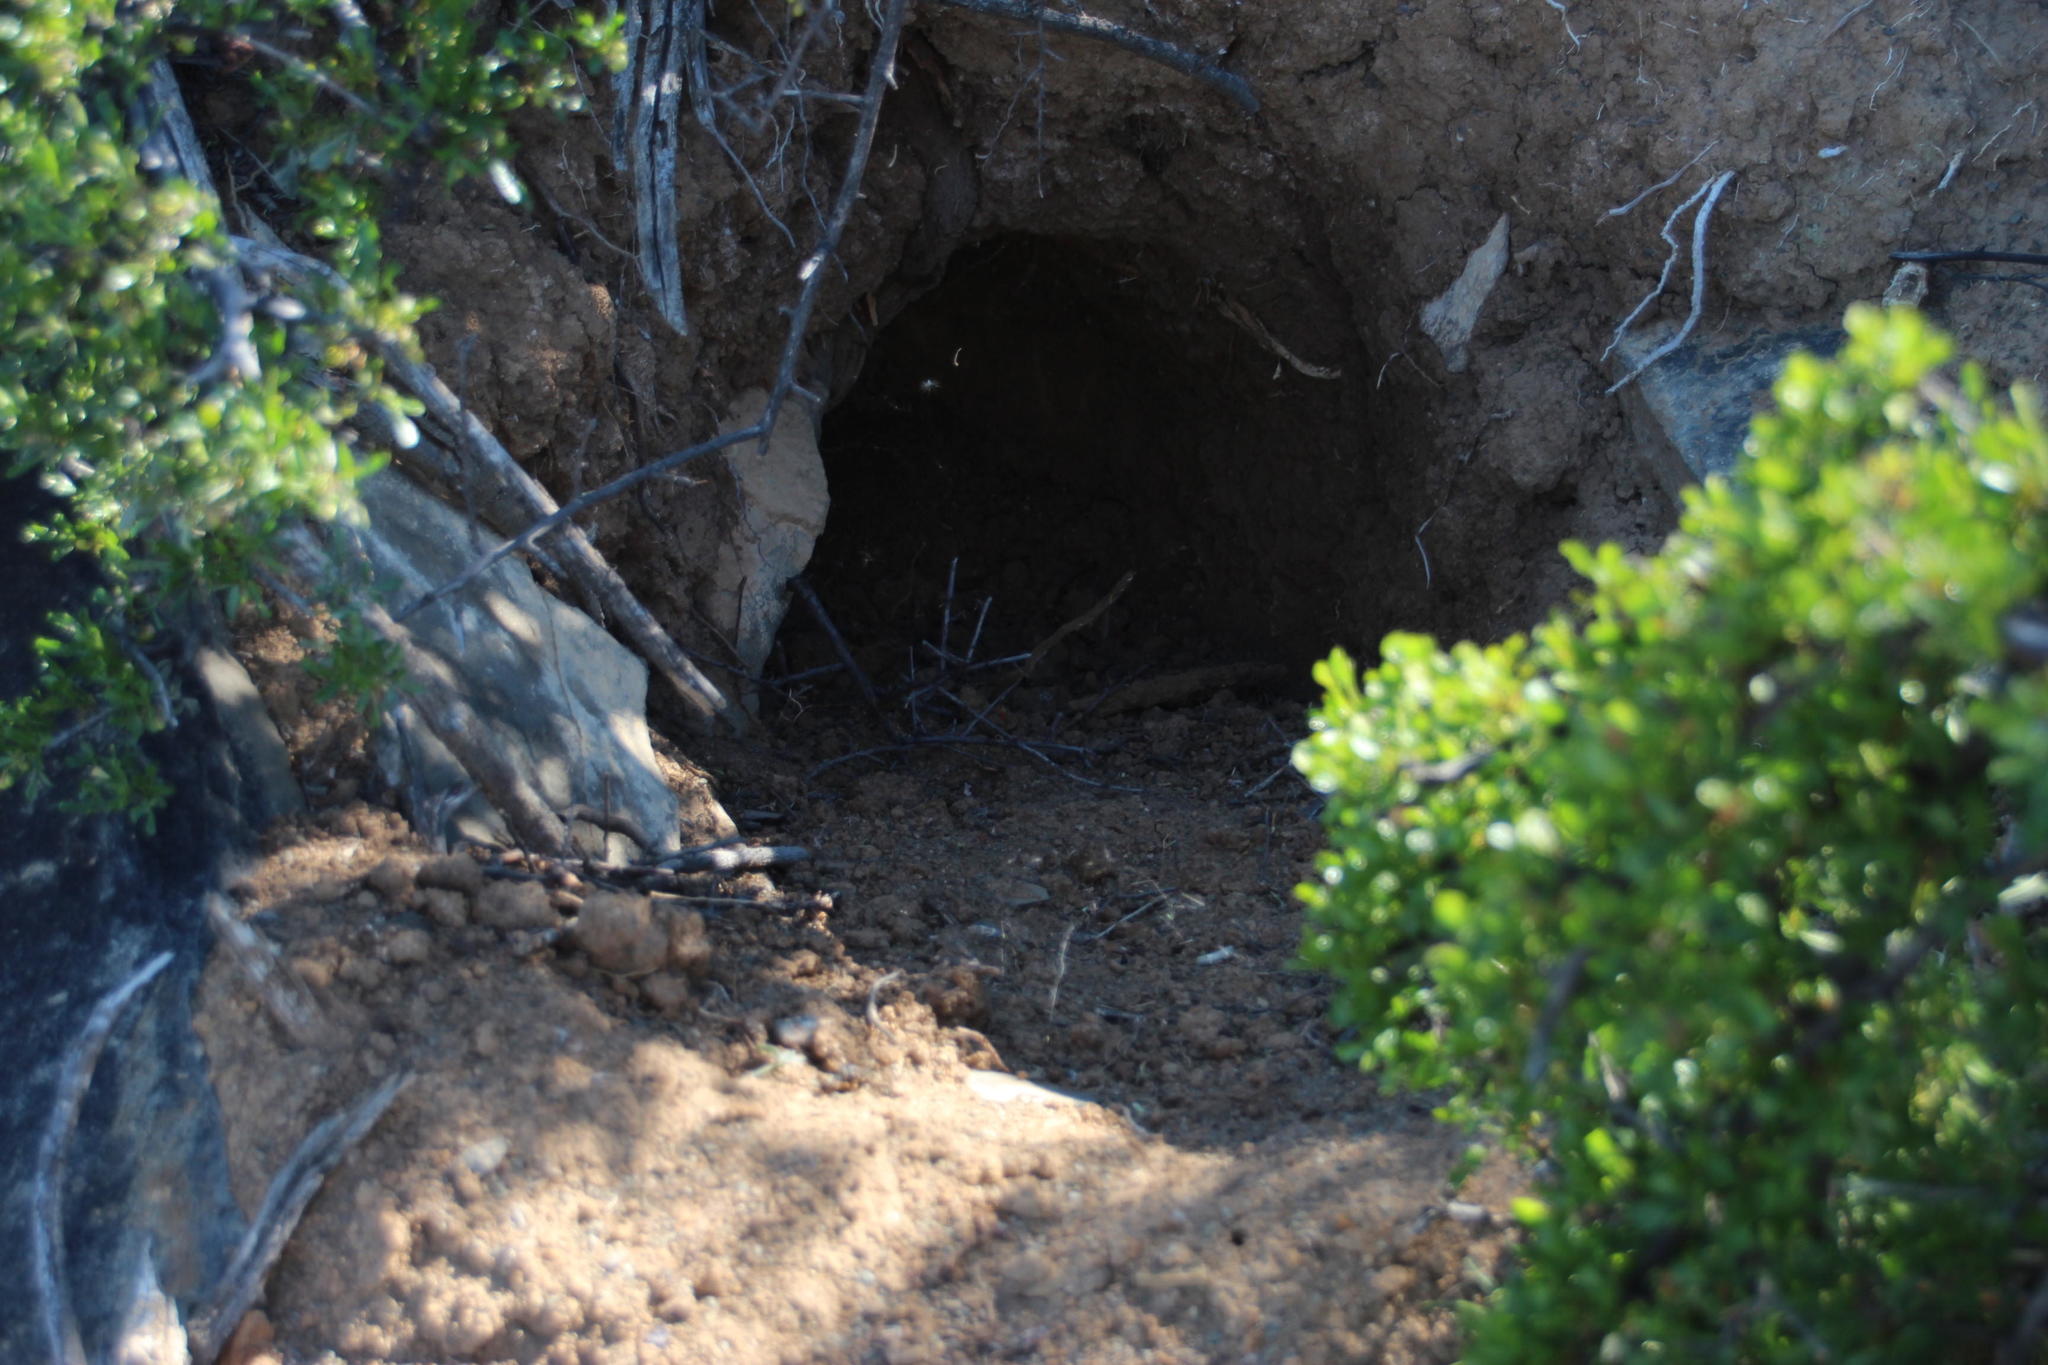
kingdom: Animalia
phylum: Chordata
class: Mammalia
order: Tubulidentata
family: Orycteropodidae
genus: Orycteropus
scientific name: Orycteropus afer
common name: Aardvark
